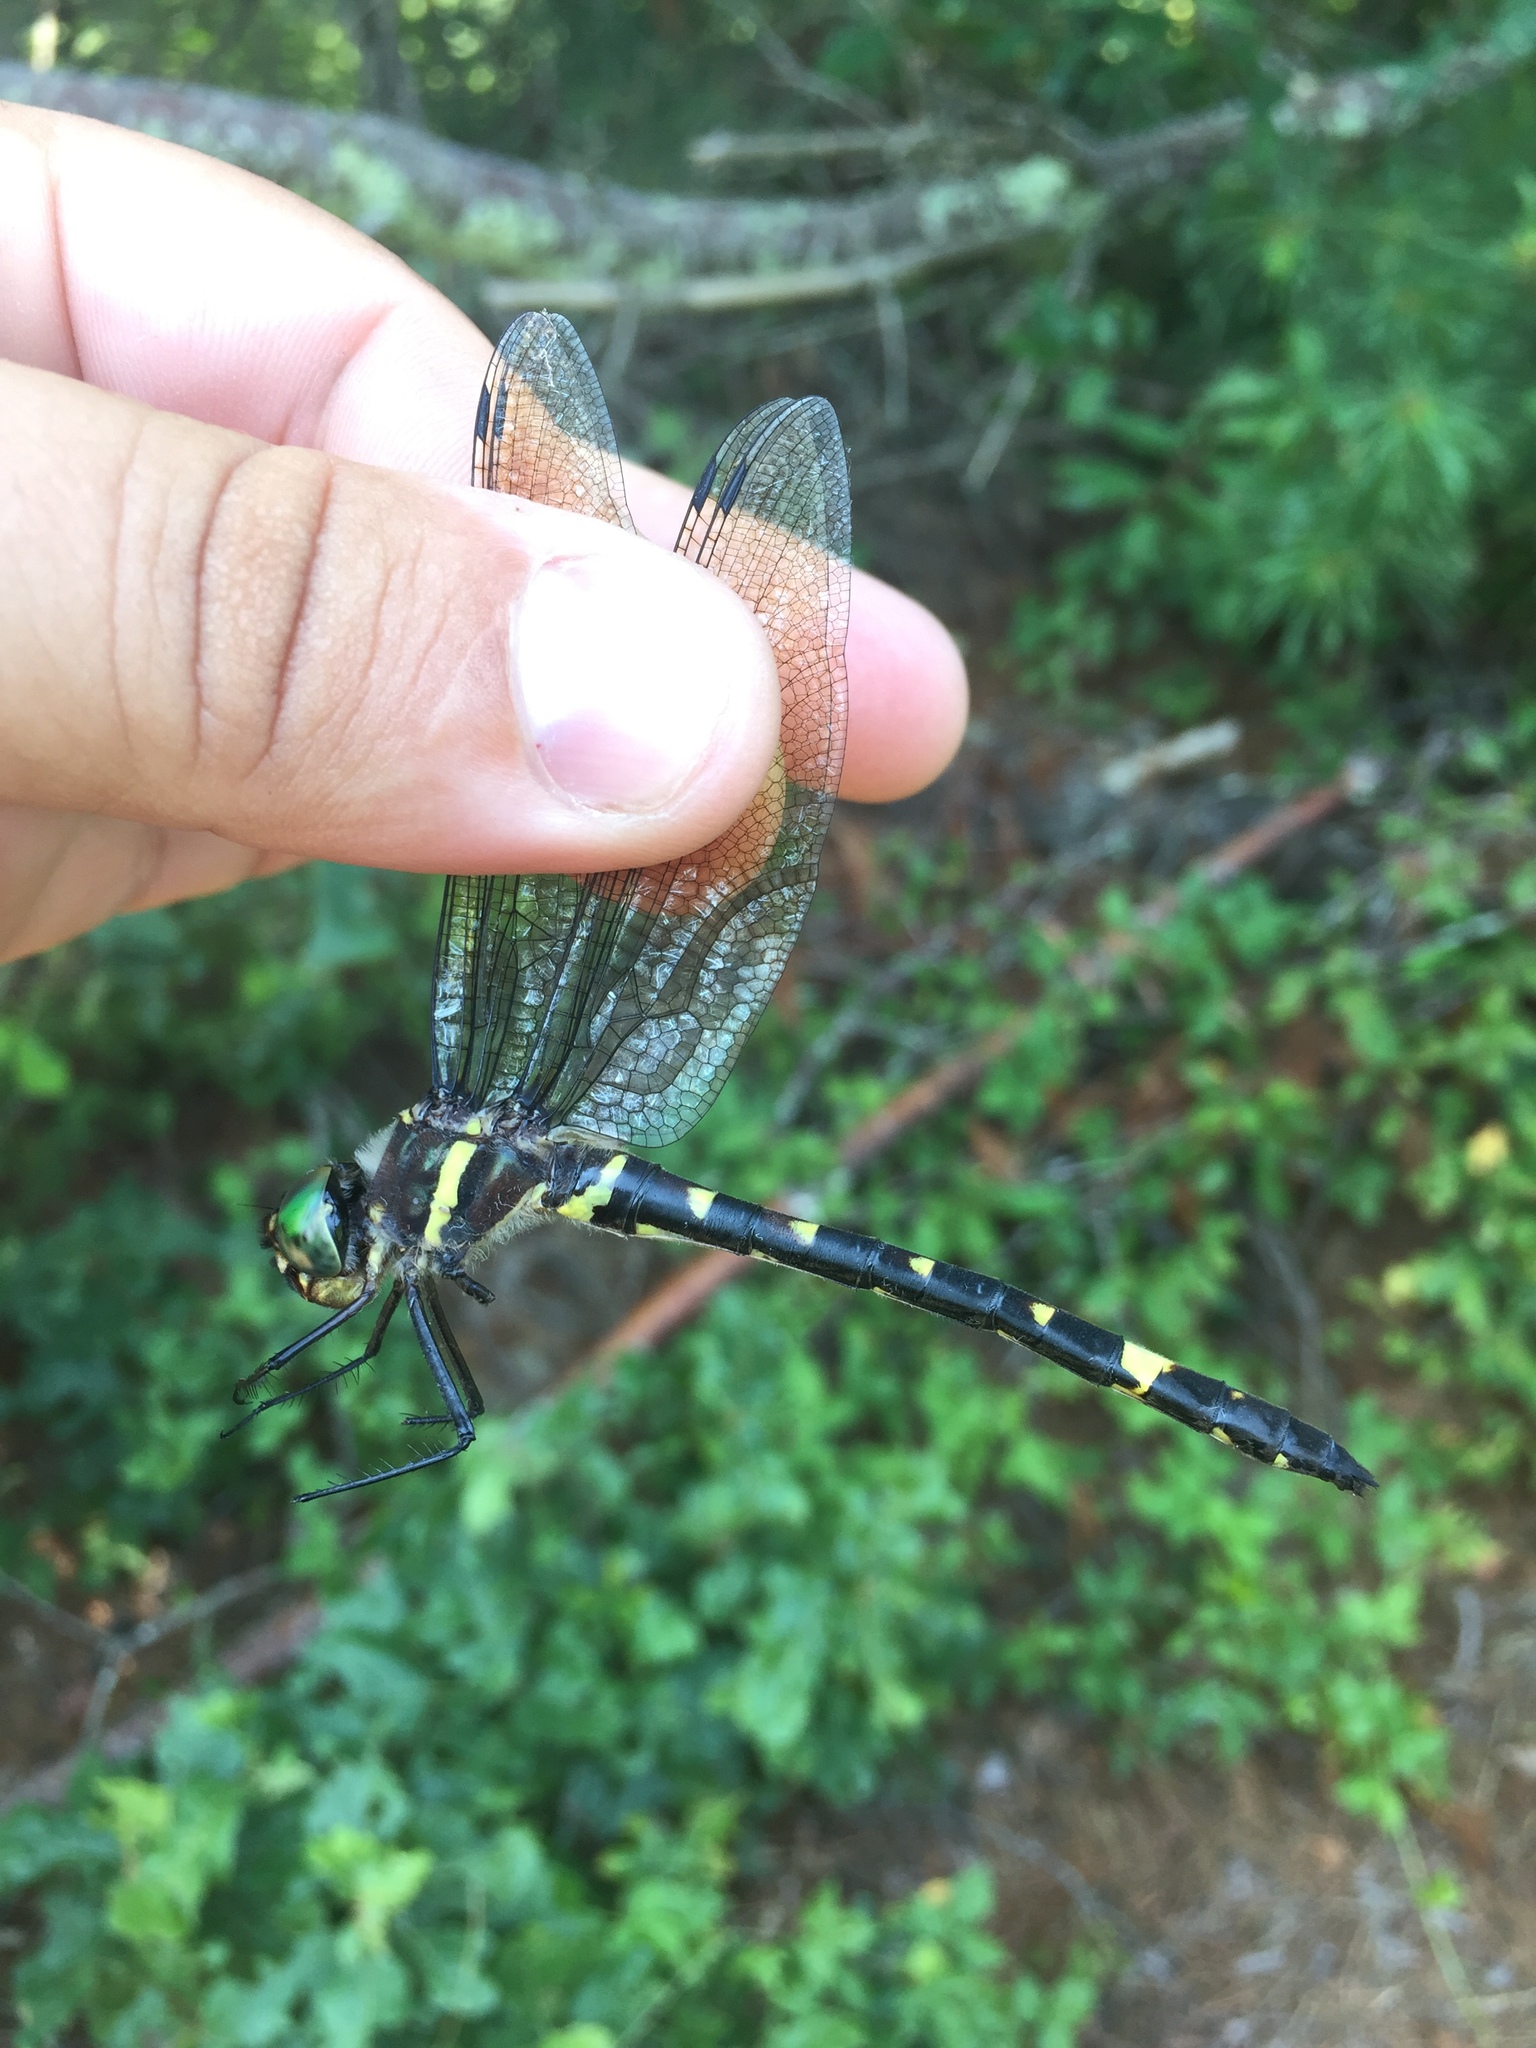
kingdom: Animalia
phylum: Arthropoda
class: Insecta
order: Odonata
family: Macromiidae
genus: Macromia
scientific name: Macromia alleghaniensis
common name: Allegheny river cruiser
